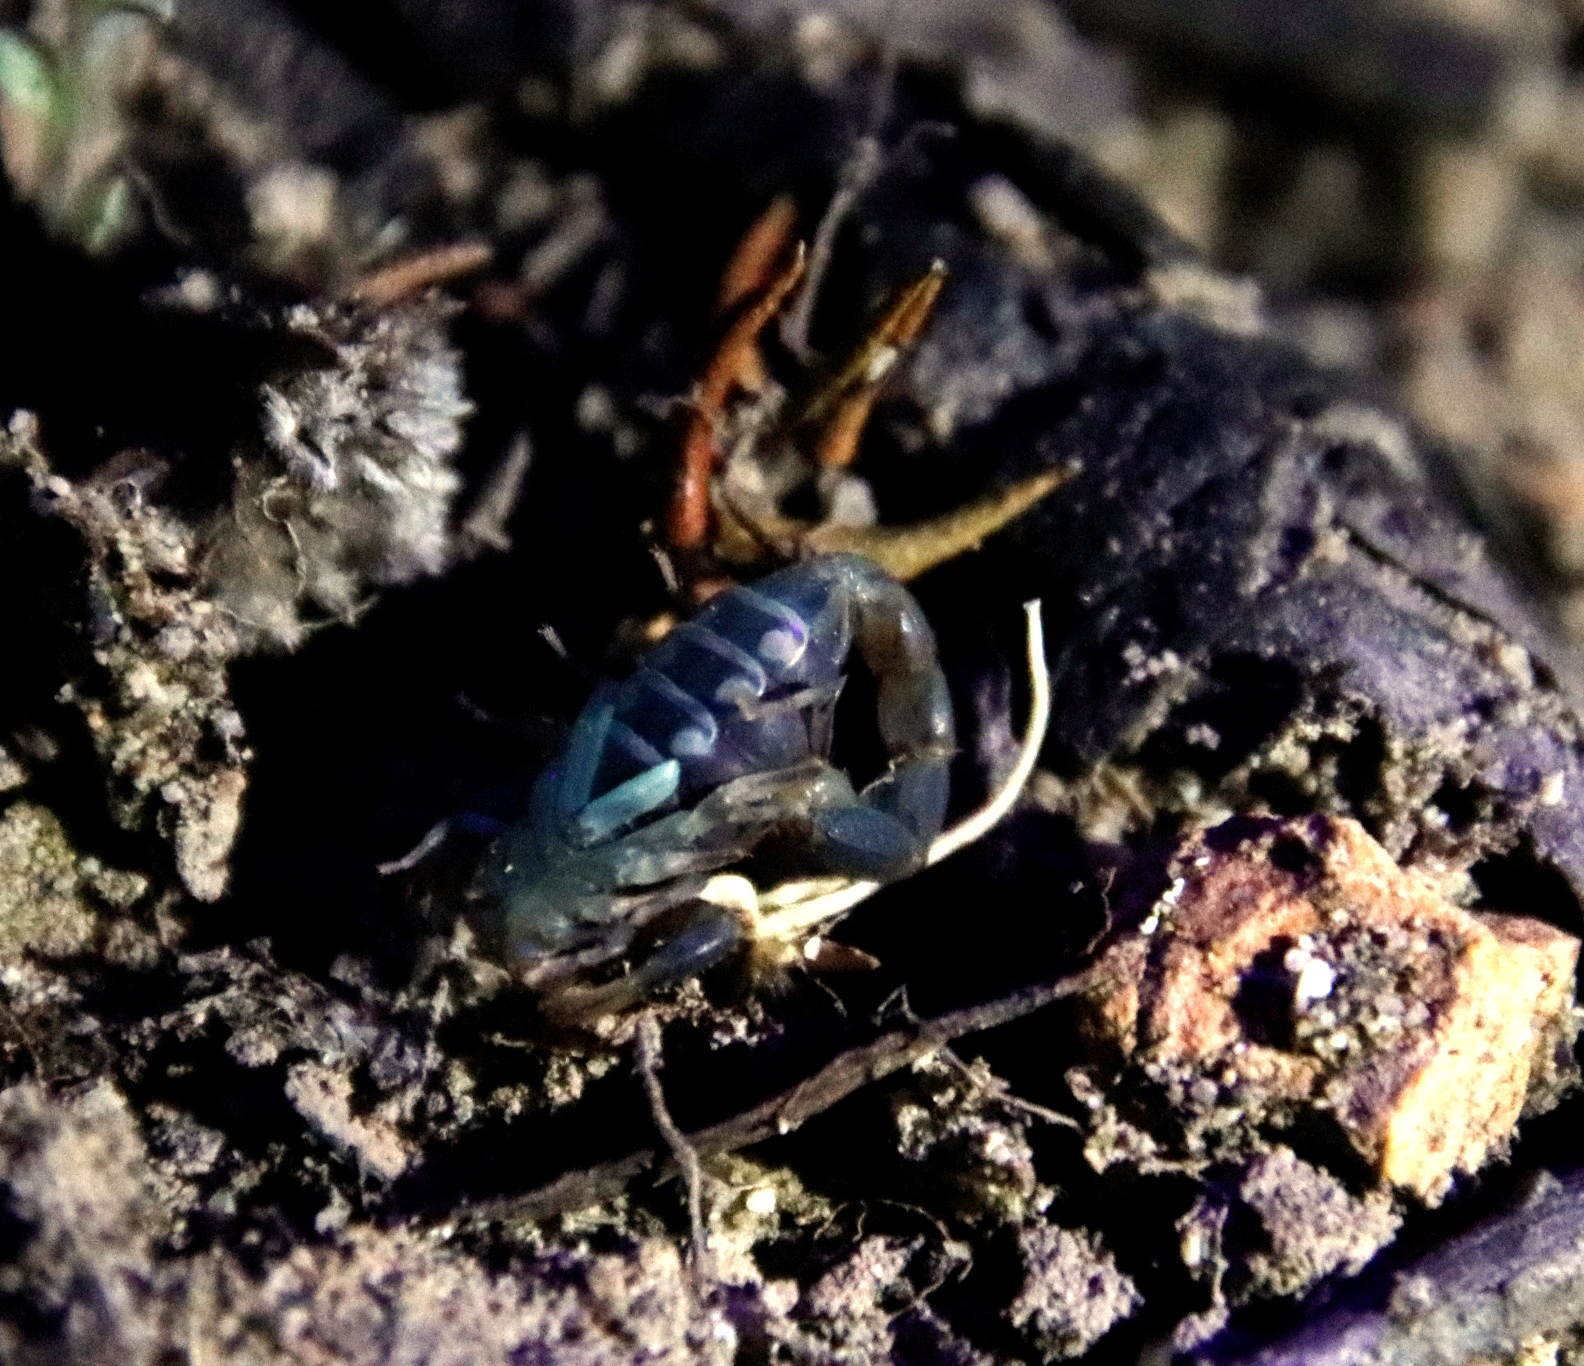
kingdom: Animalia
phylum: Arthropoda
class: Arachnida
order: Scorpiones
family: Buthidae
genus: Uroplectes
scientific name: Uroplectes lineatus
